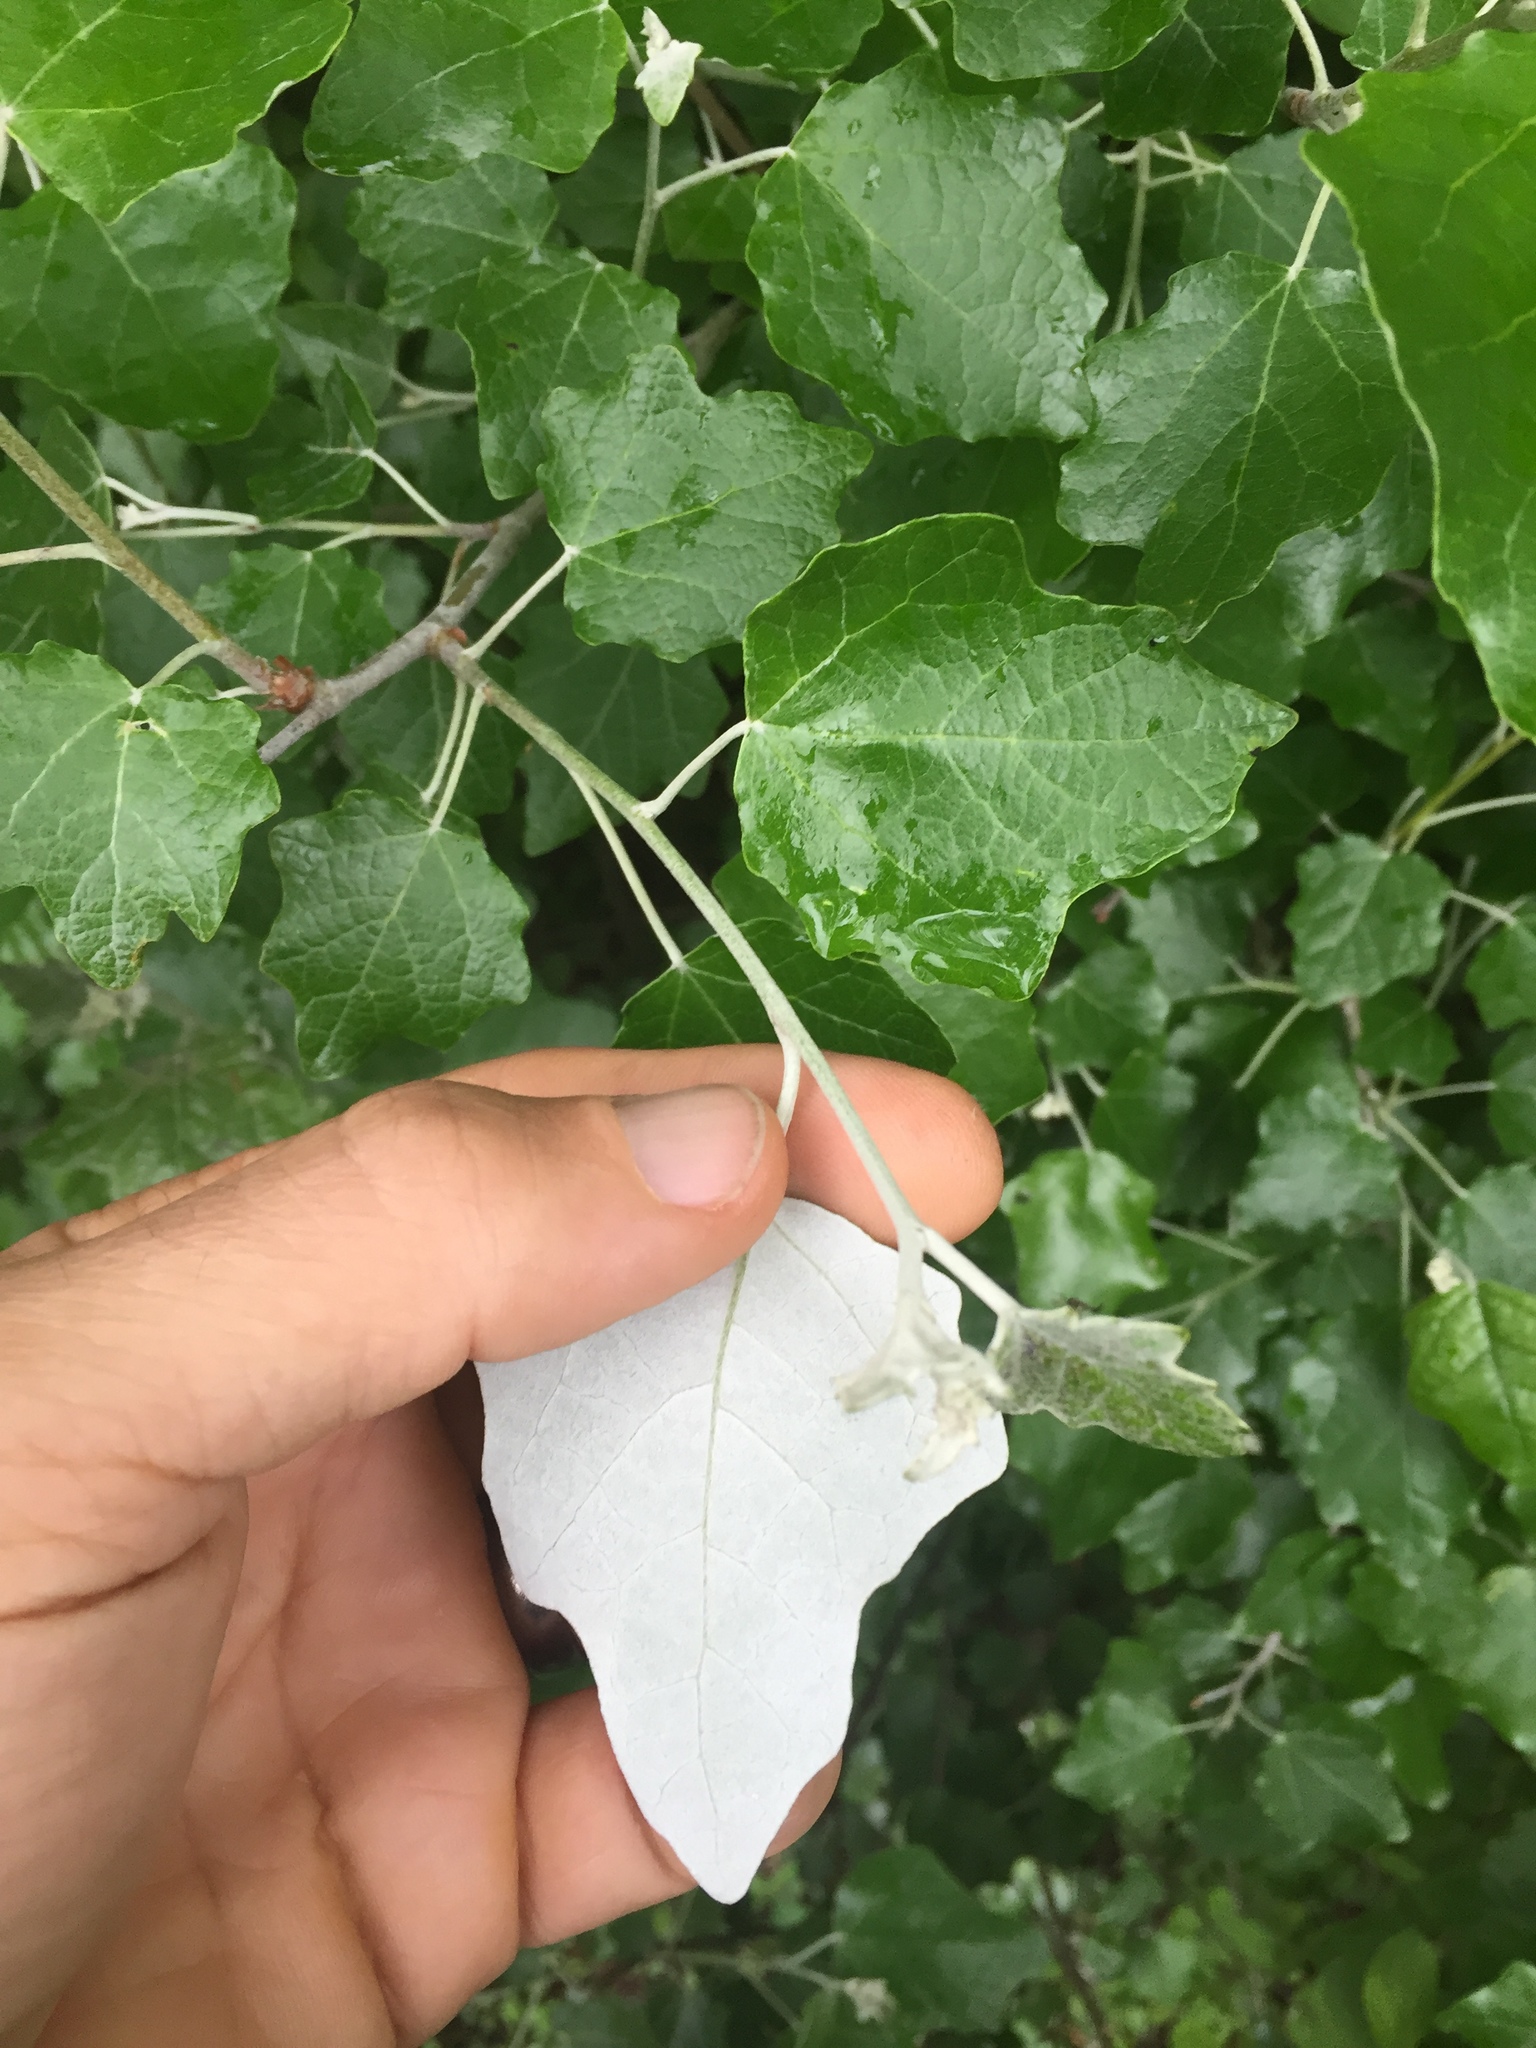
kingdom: Plantae
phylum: Tracheophyta
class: Magnoliopsida
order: Malpighiales
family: Salicaceae
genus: Populus
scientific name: Populus alba
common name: White poplar
